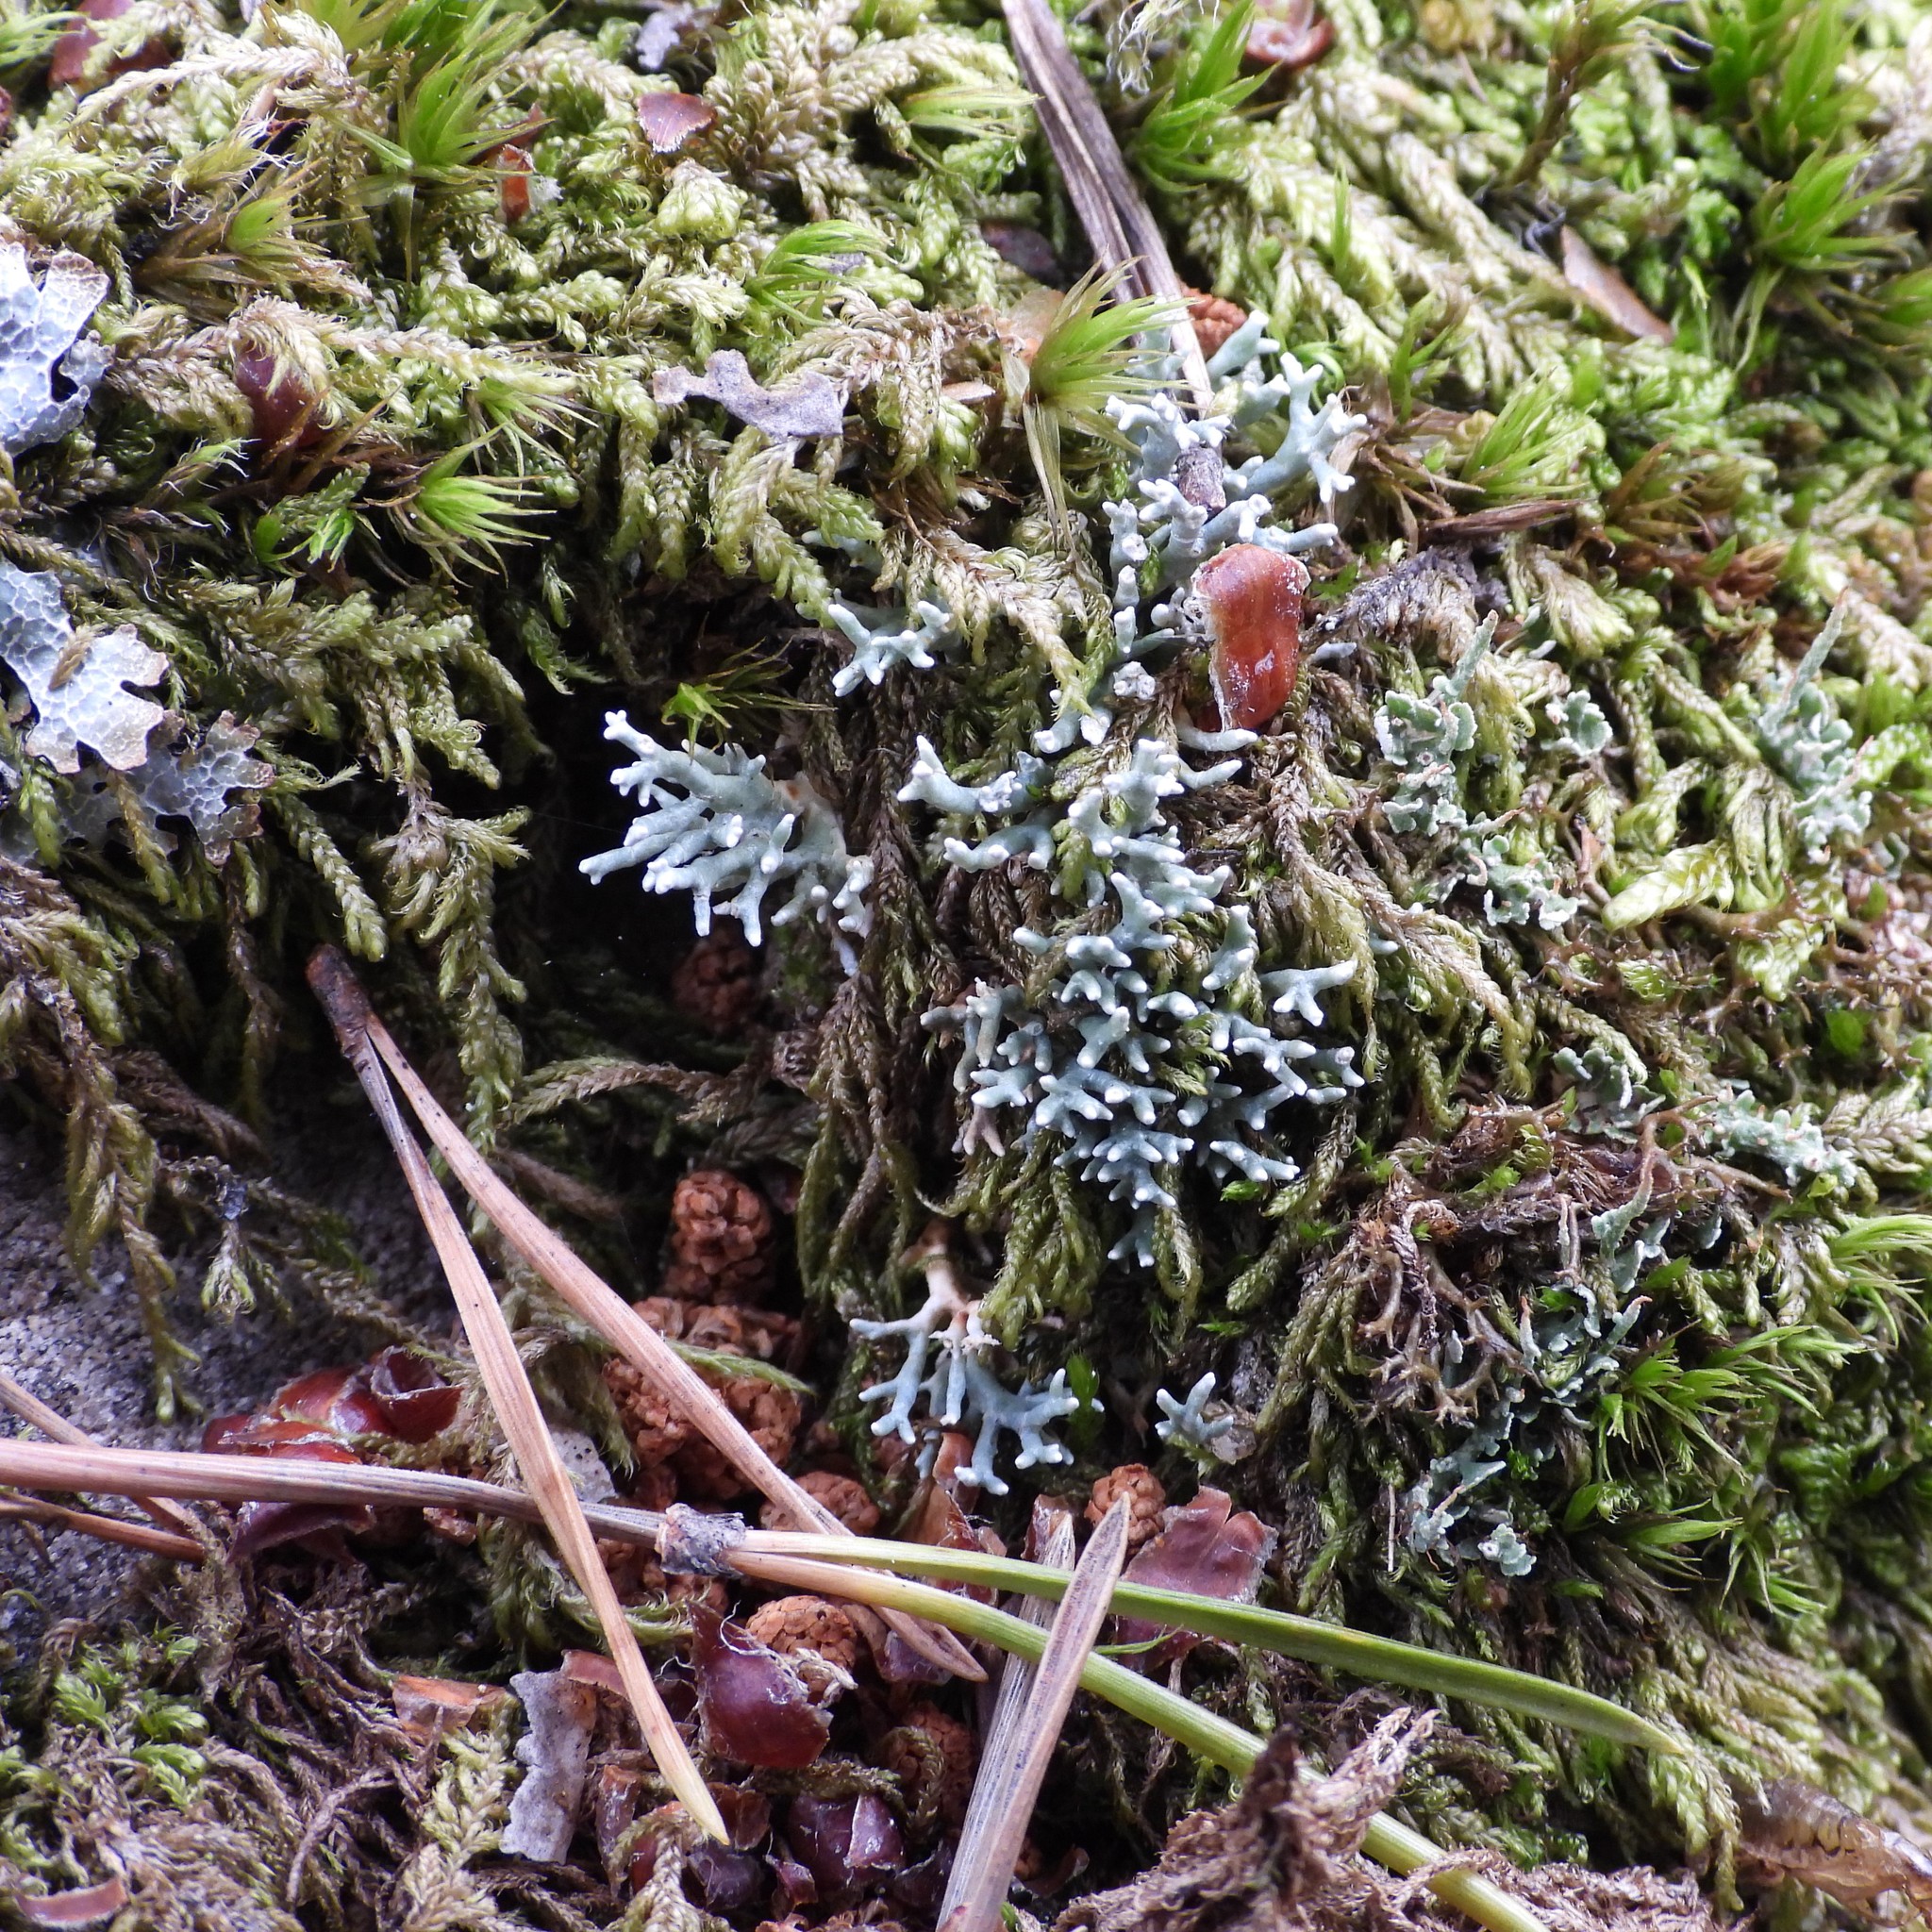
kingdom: Fungi
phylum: Ascomycota
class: Lecanoromycetes
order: Lecanorales
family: Sphaerophoraceae
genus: Sphaerophorus
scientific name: Sphaerophorus fragilis
